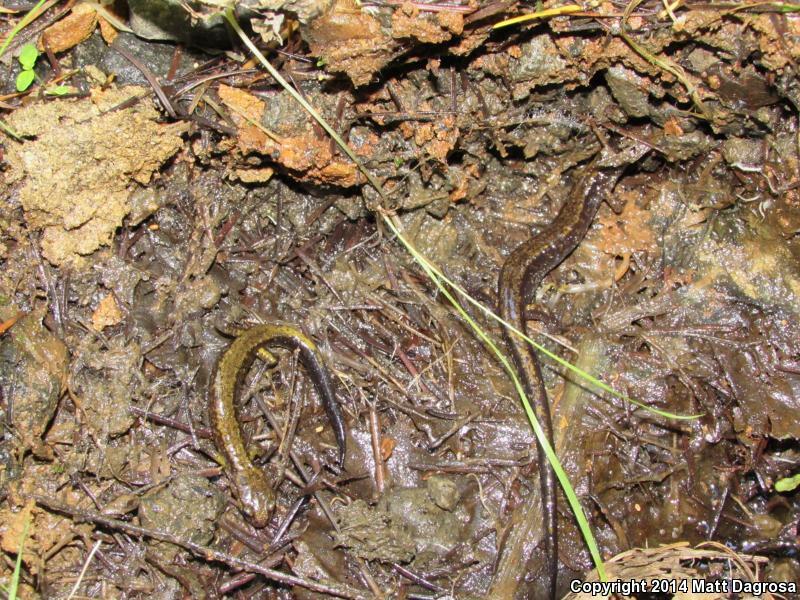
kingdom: Animalia
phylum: Chordata
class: Amphibia
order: Caudata
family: Plethodontidae
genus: Plethodon
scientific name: Plethodon dunni
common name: Dunn's salamander
